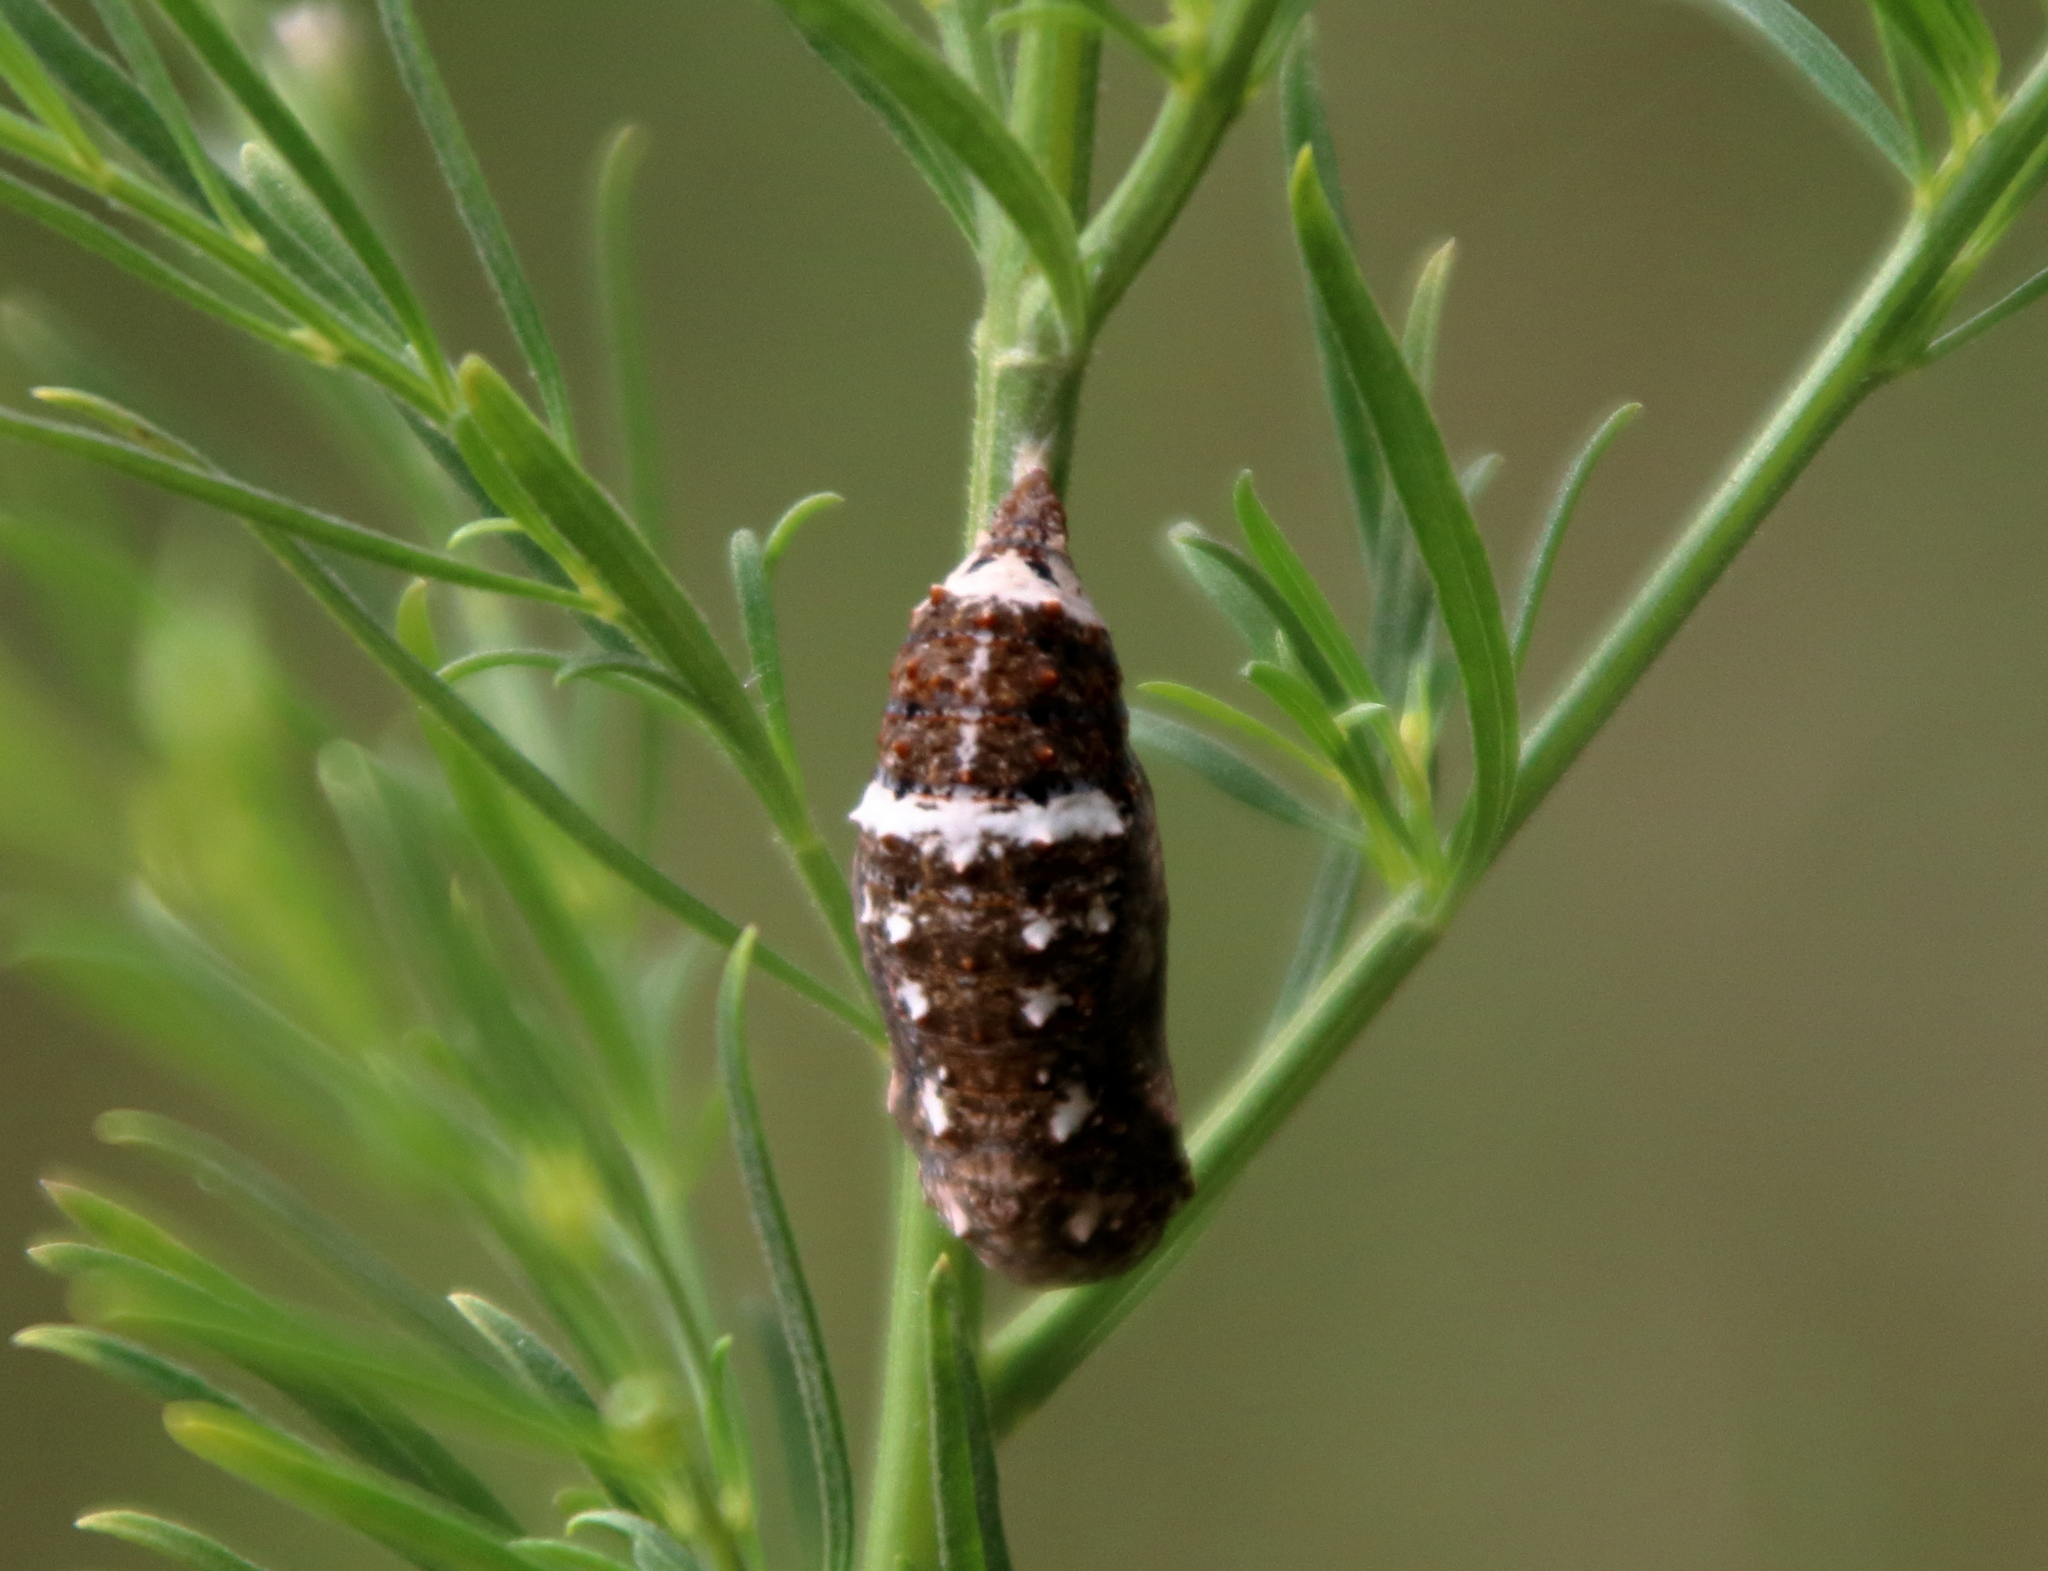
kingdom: Animalia
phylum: Arthropoda
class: Insecta
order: Lepidoptera
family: Nymphalidae
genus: Junonia
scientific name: Junonia coenia
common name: Common buckeye
